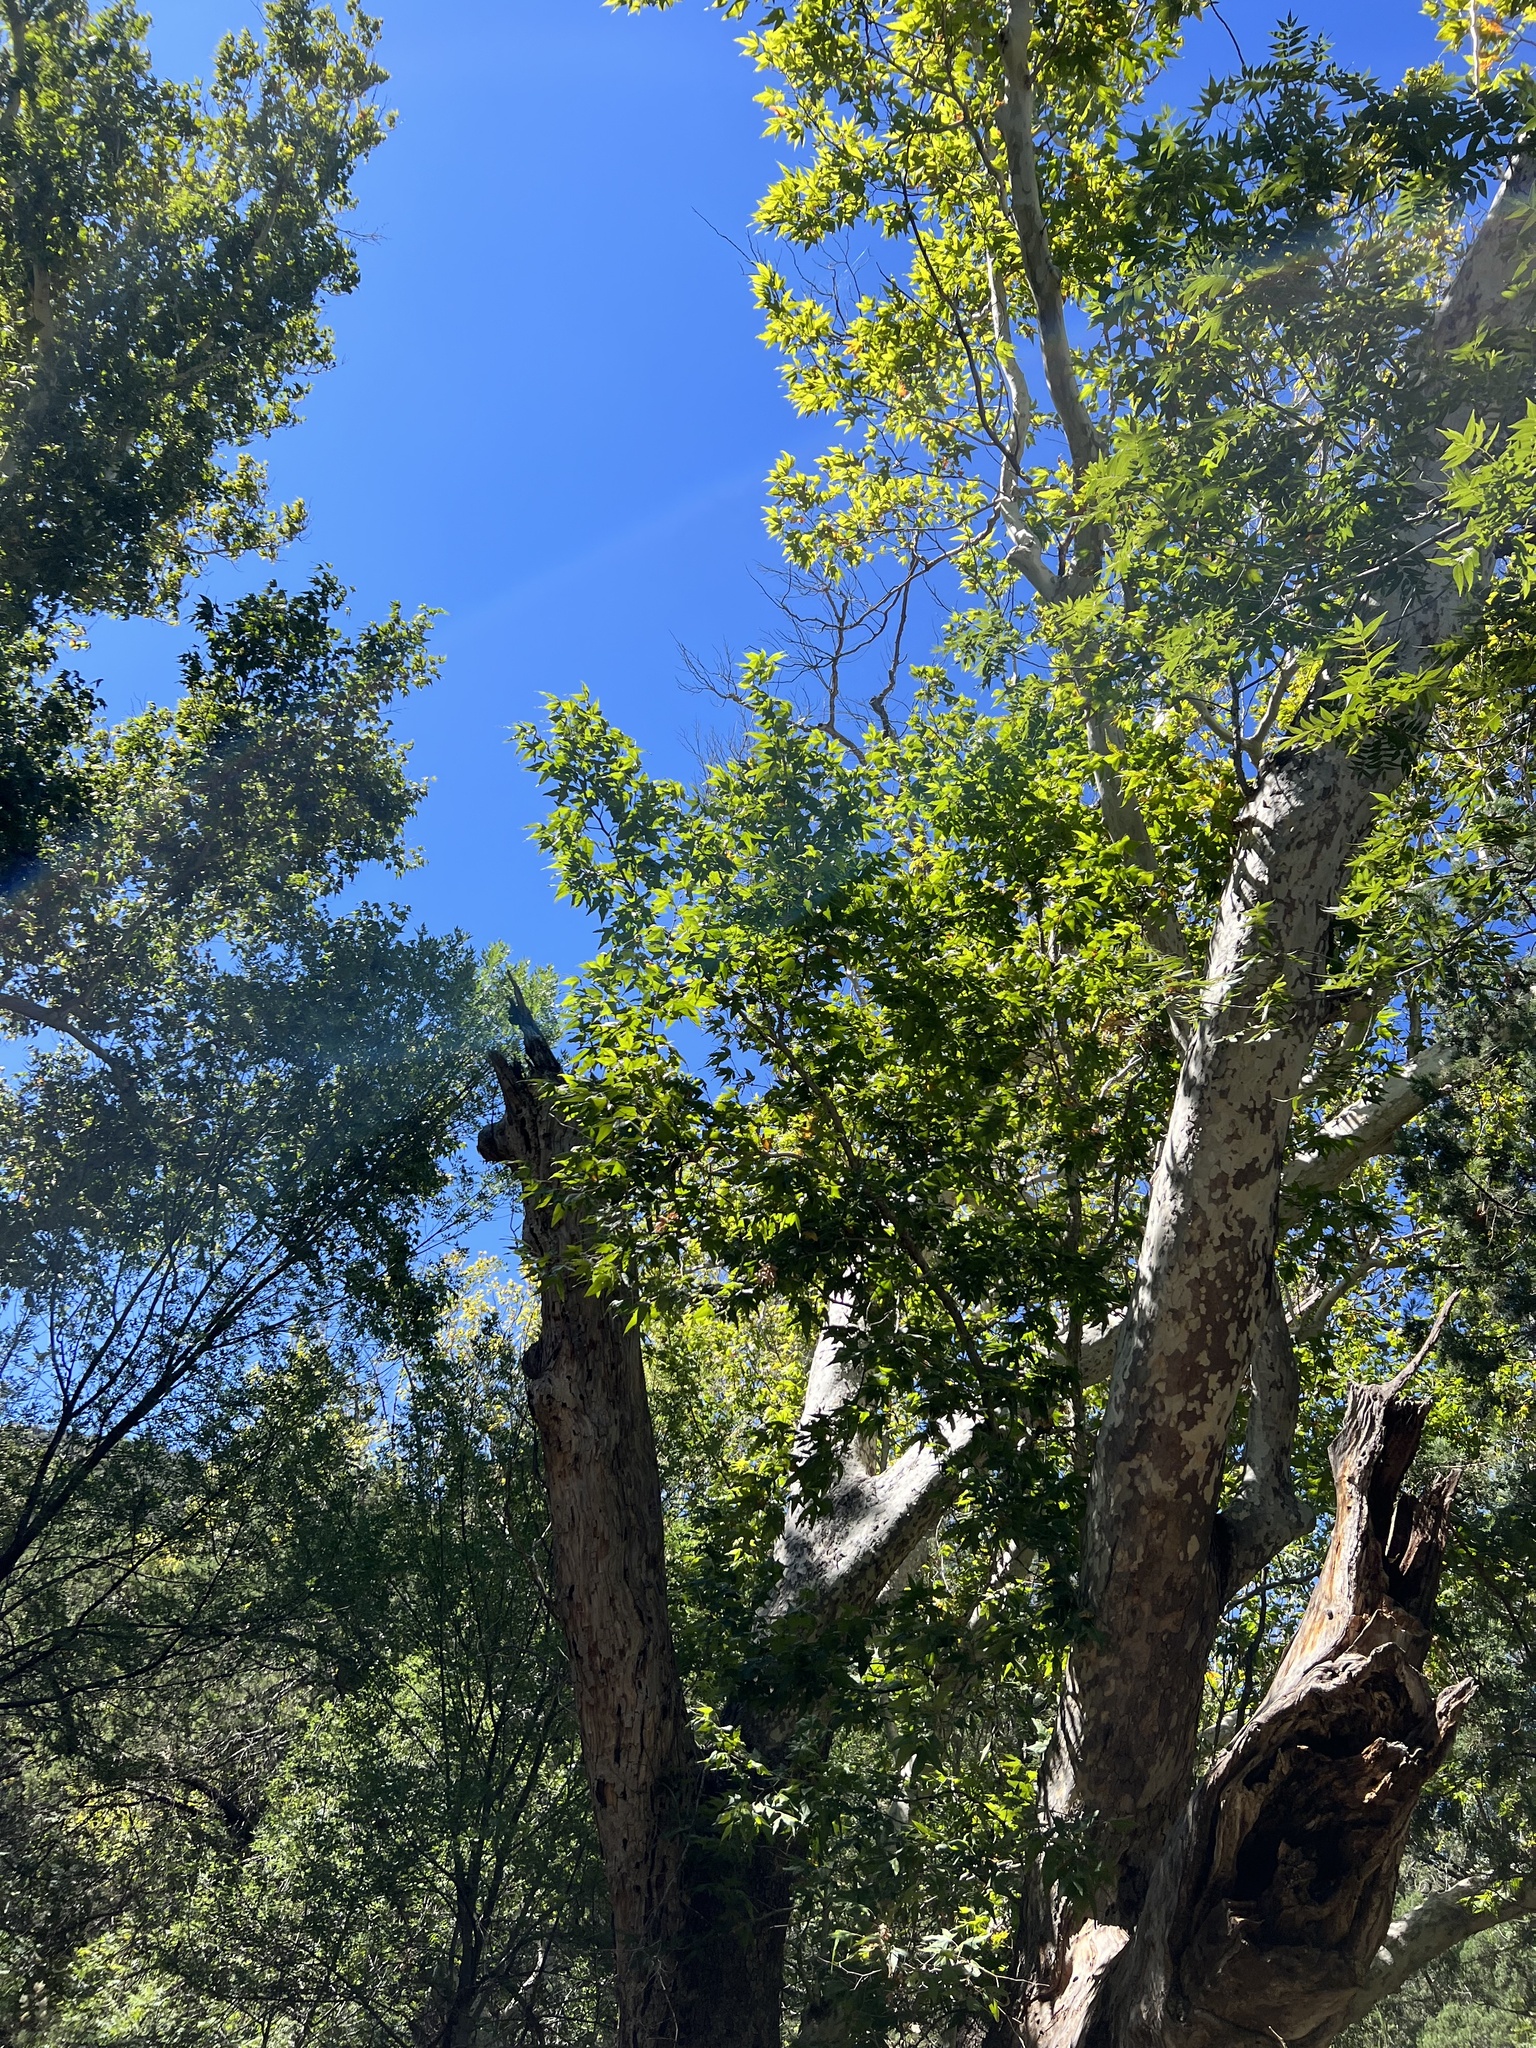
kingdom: Plantae
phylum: Tracheophyta
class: Magnoliopsida
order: Proteales
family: Platanaceae
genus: Platanus
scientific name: Platanus wrightii
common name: Arizona sycamore
